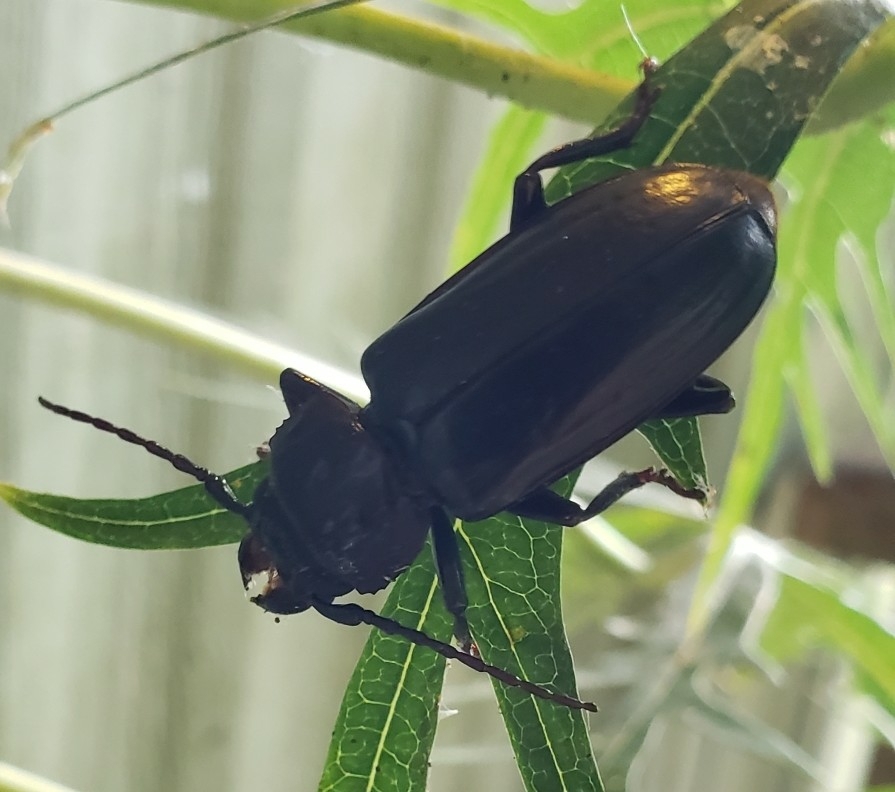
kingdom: Animalia
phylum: Arthropoda
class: Insecta
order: Coleoptera
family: Cerambycidae
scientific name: Cerambycidae
